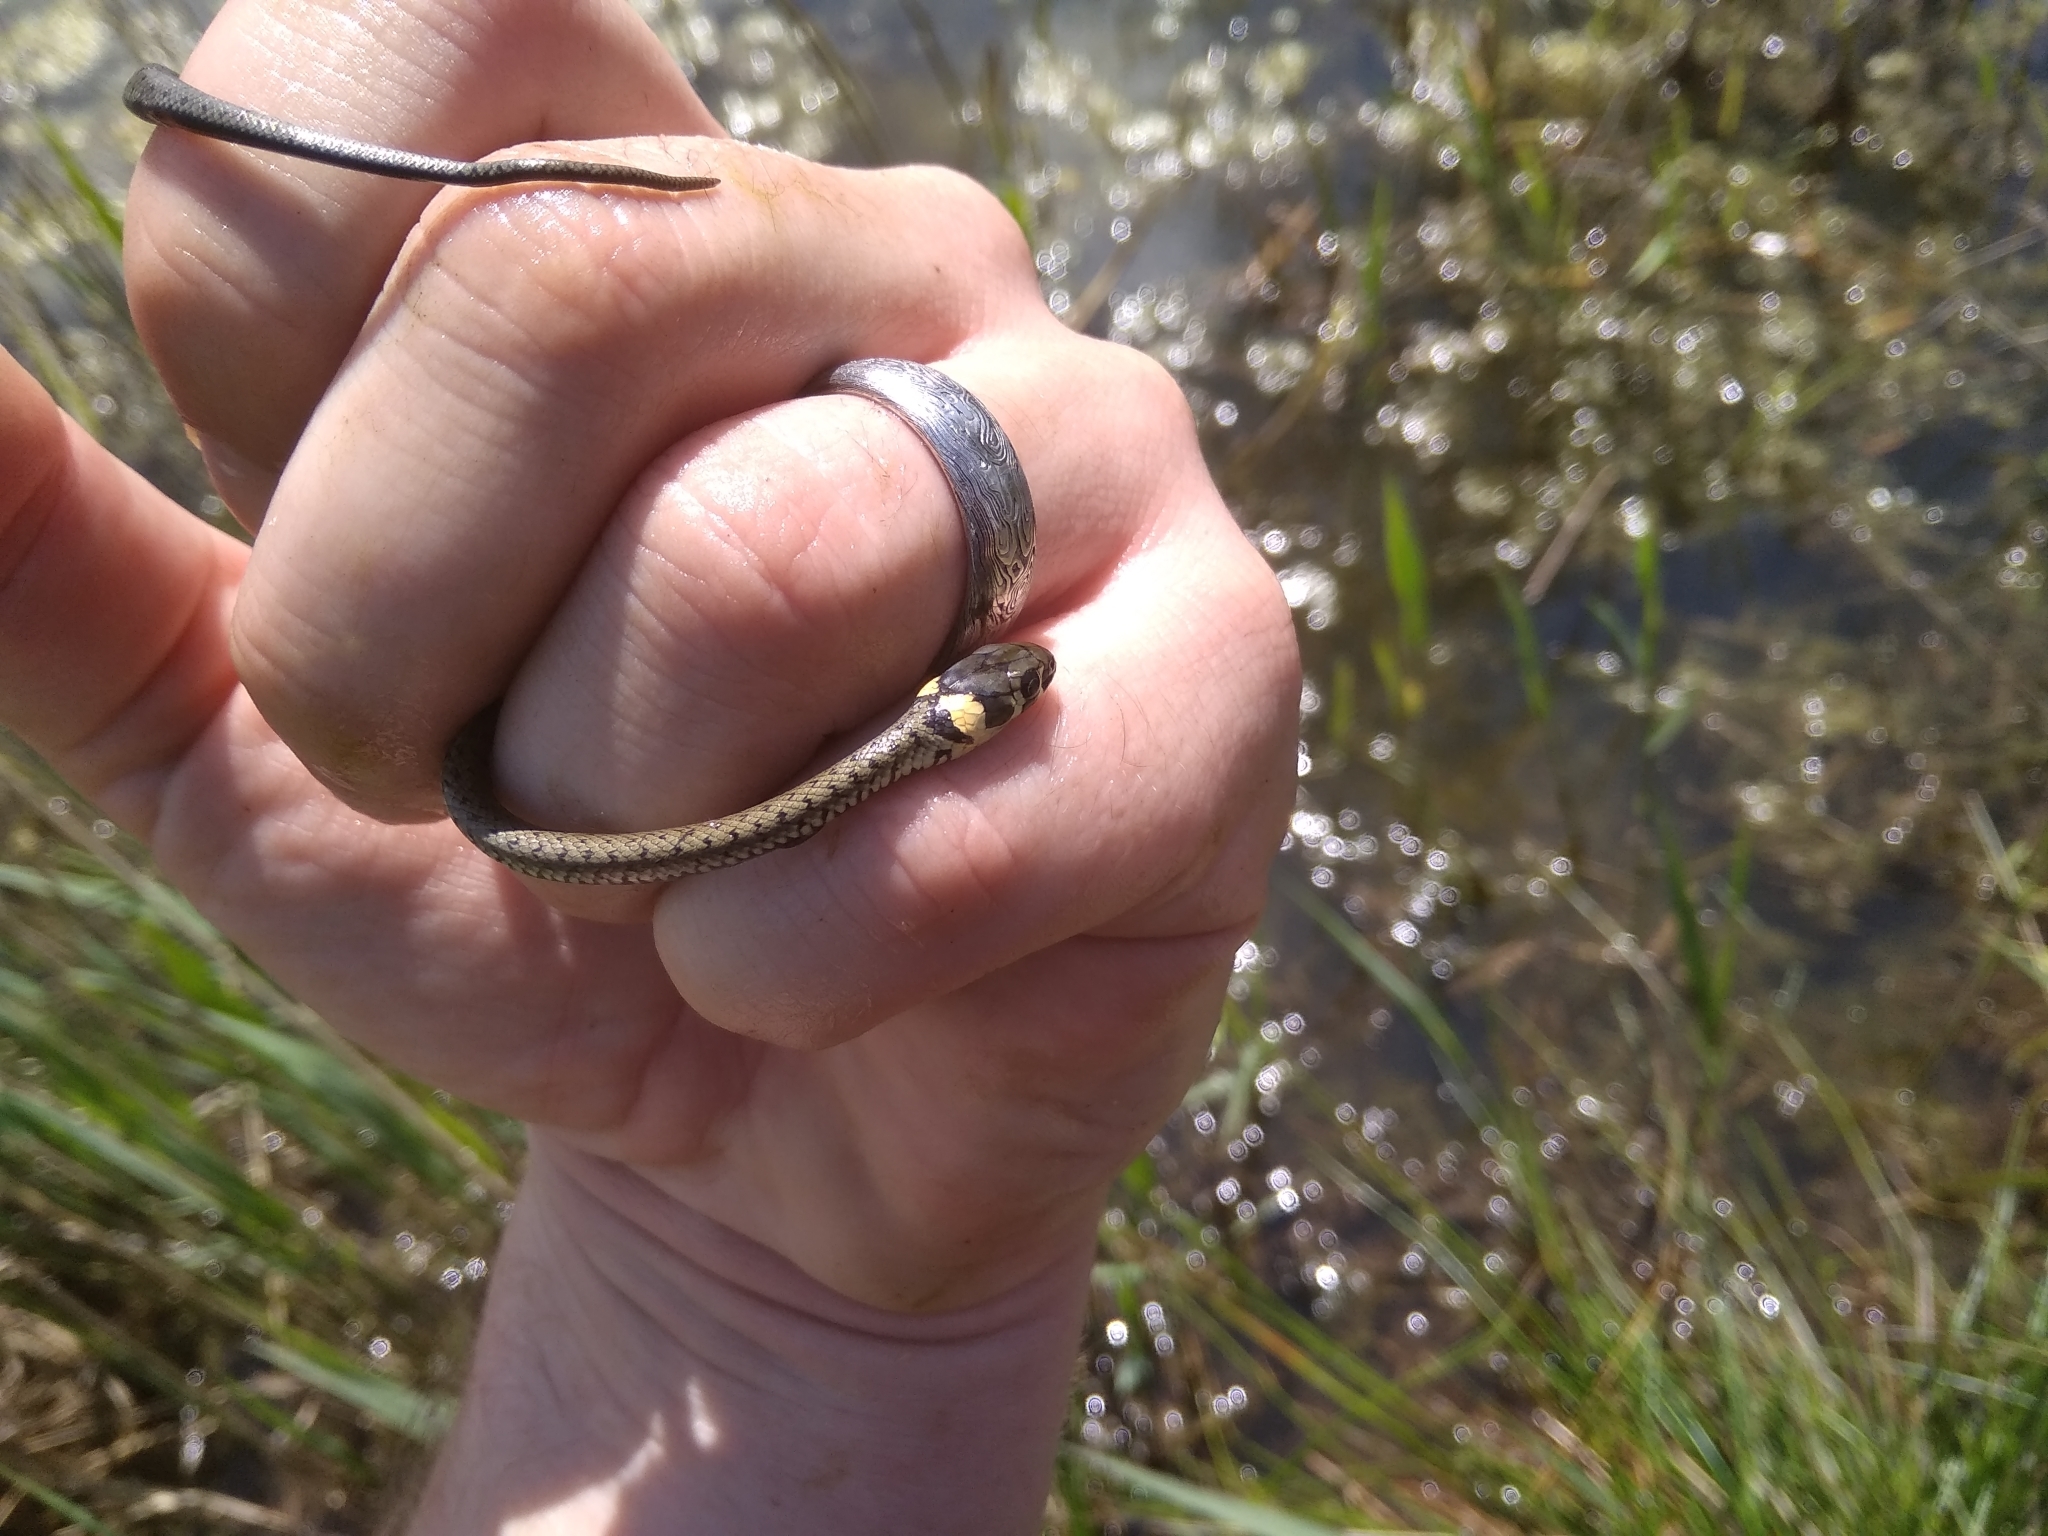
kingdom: Animalia
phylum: Chordata
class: Squamata
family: Colubridae
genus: Natrix
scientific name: Natrix natrix
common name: Grass snake
